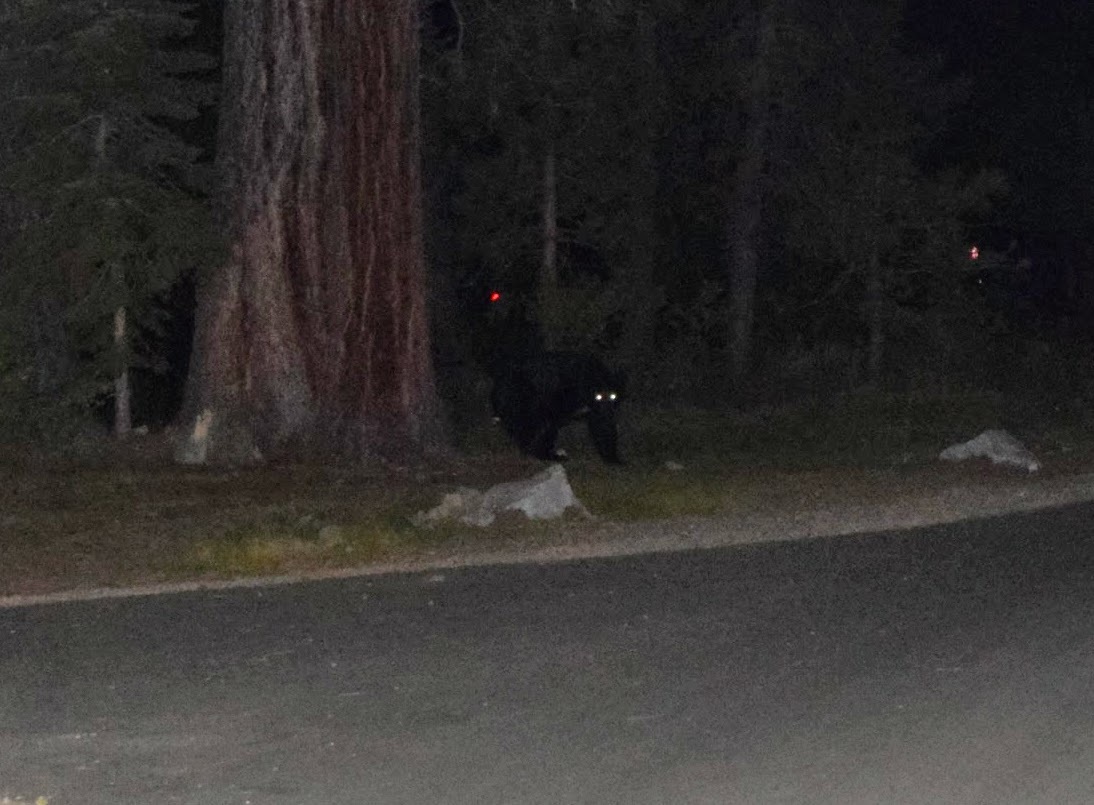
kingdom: Animalia
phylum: Chordata
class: Mammalia
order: Carnivora
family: Ursidae
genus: Ursus
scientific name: Ursus americanus
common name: American black bear
